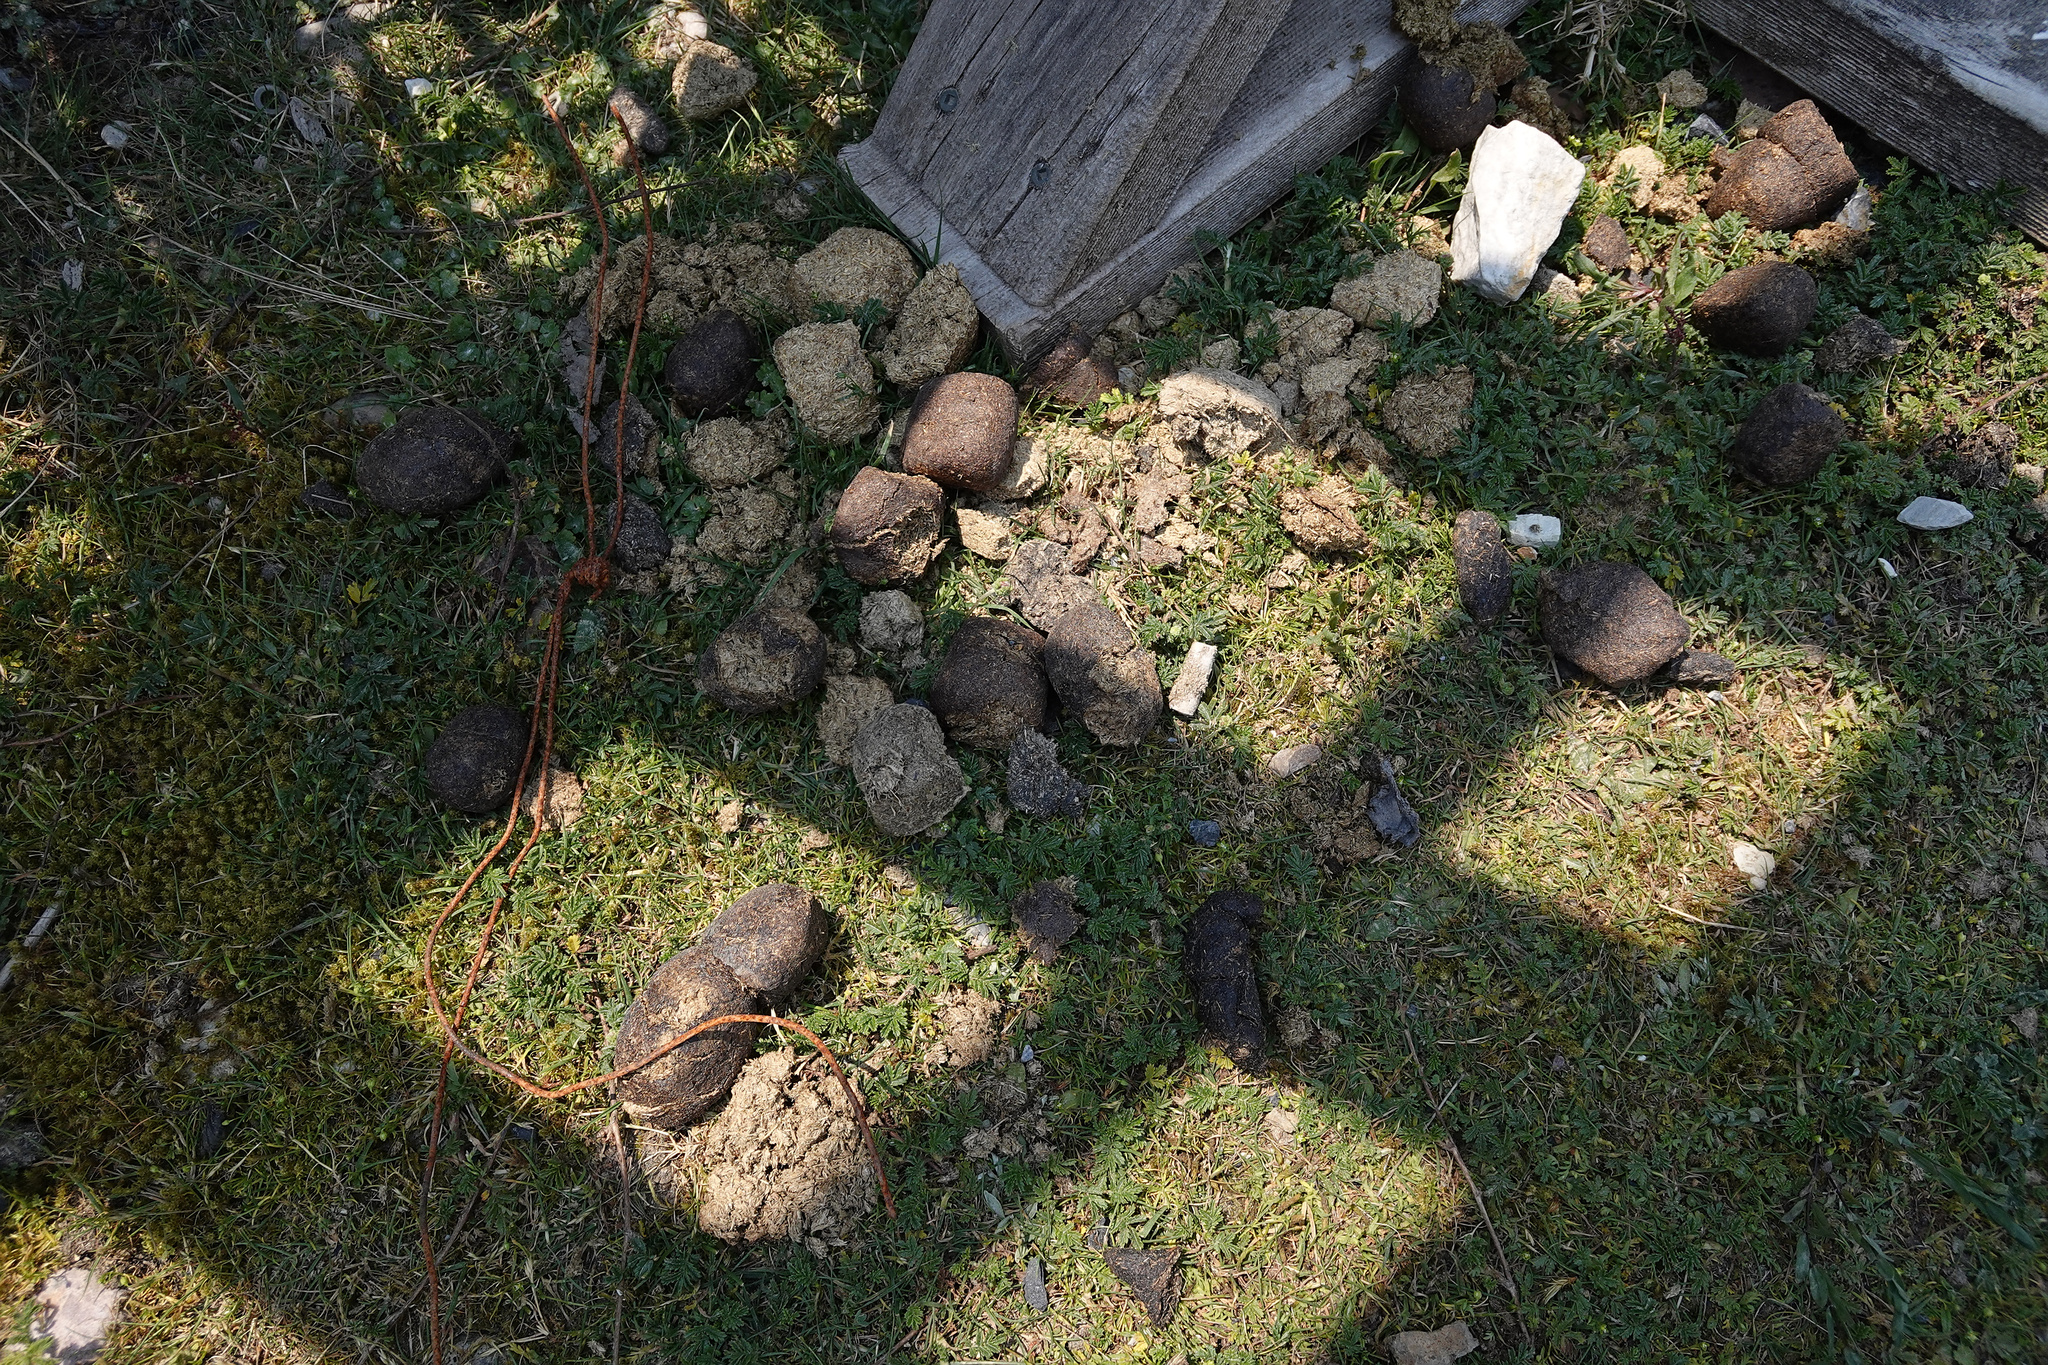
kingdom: Animalia
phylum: Chordata
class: Mammalia
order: Diprotodontia
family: Vombatidae
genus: Vombatus
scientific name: Vombatus ursinus
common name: Common wombat
